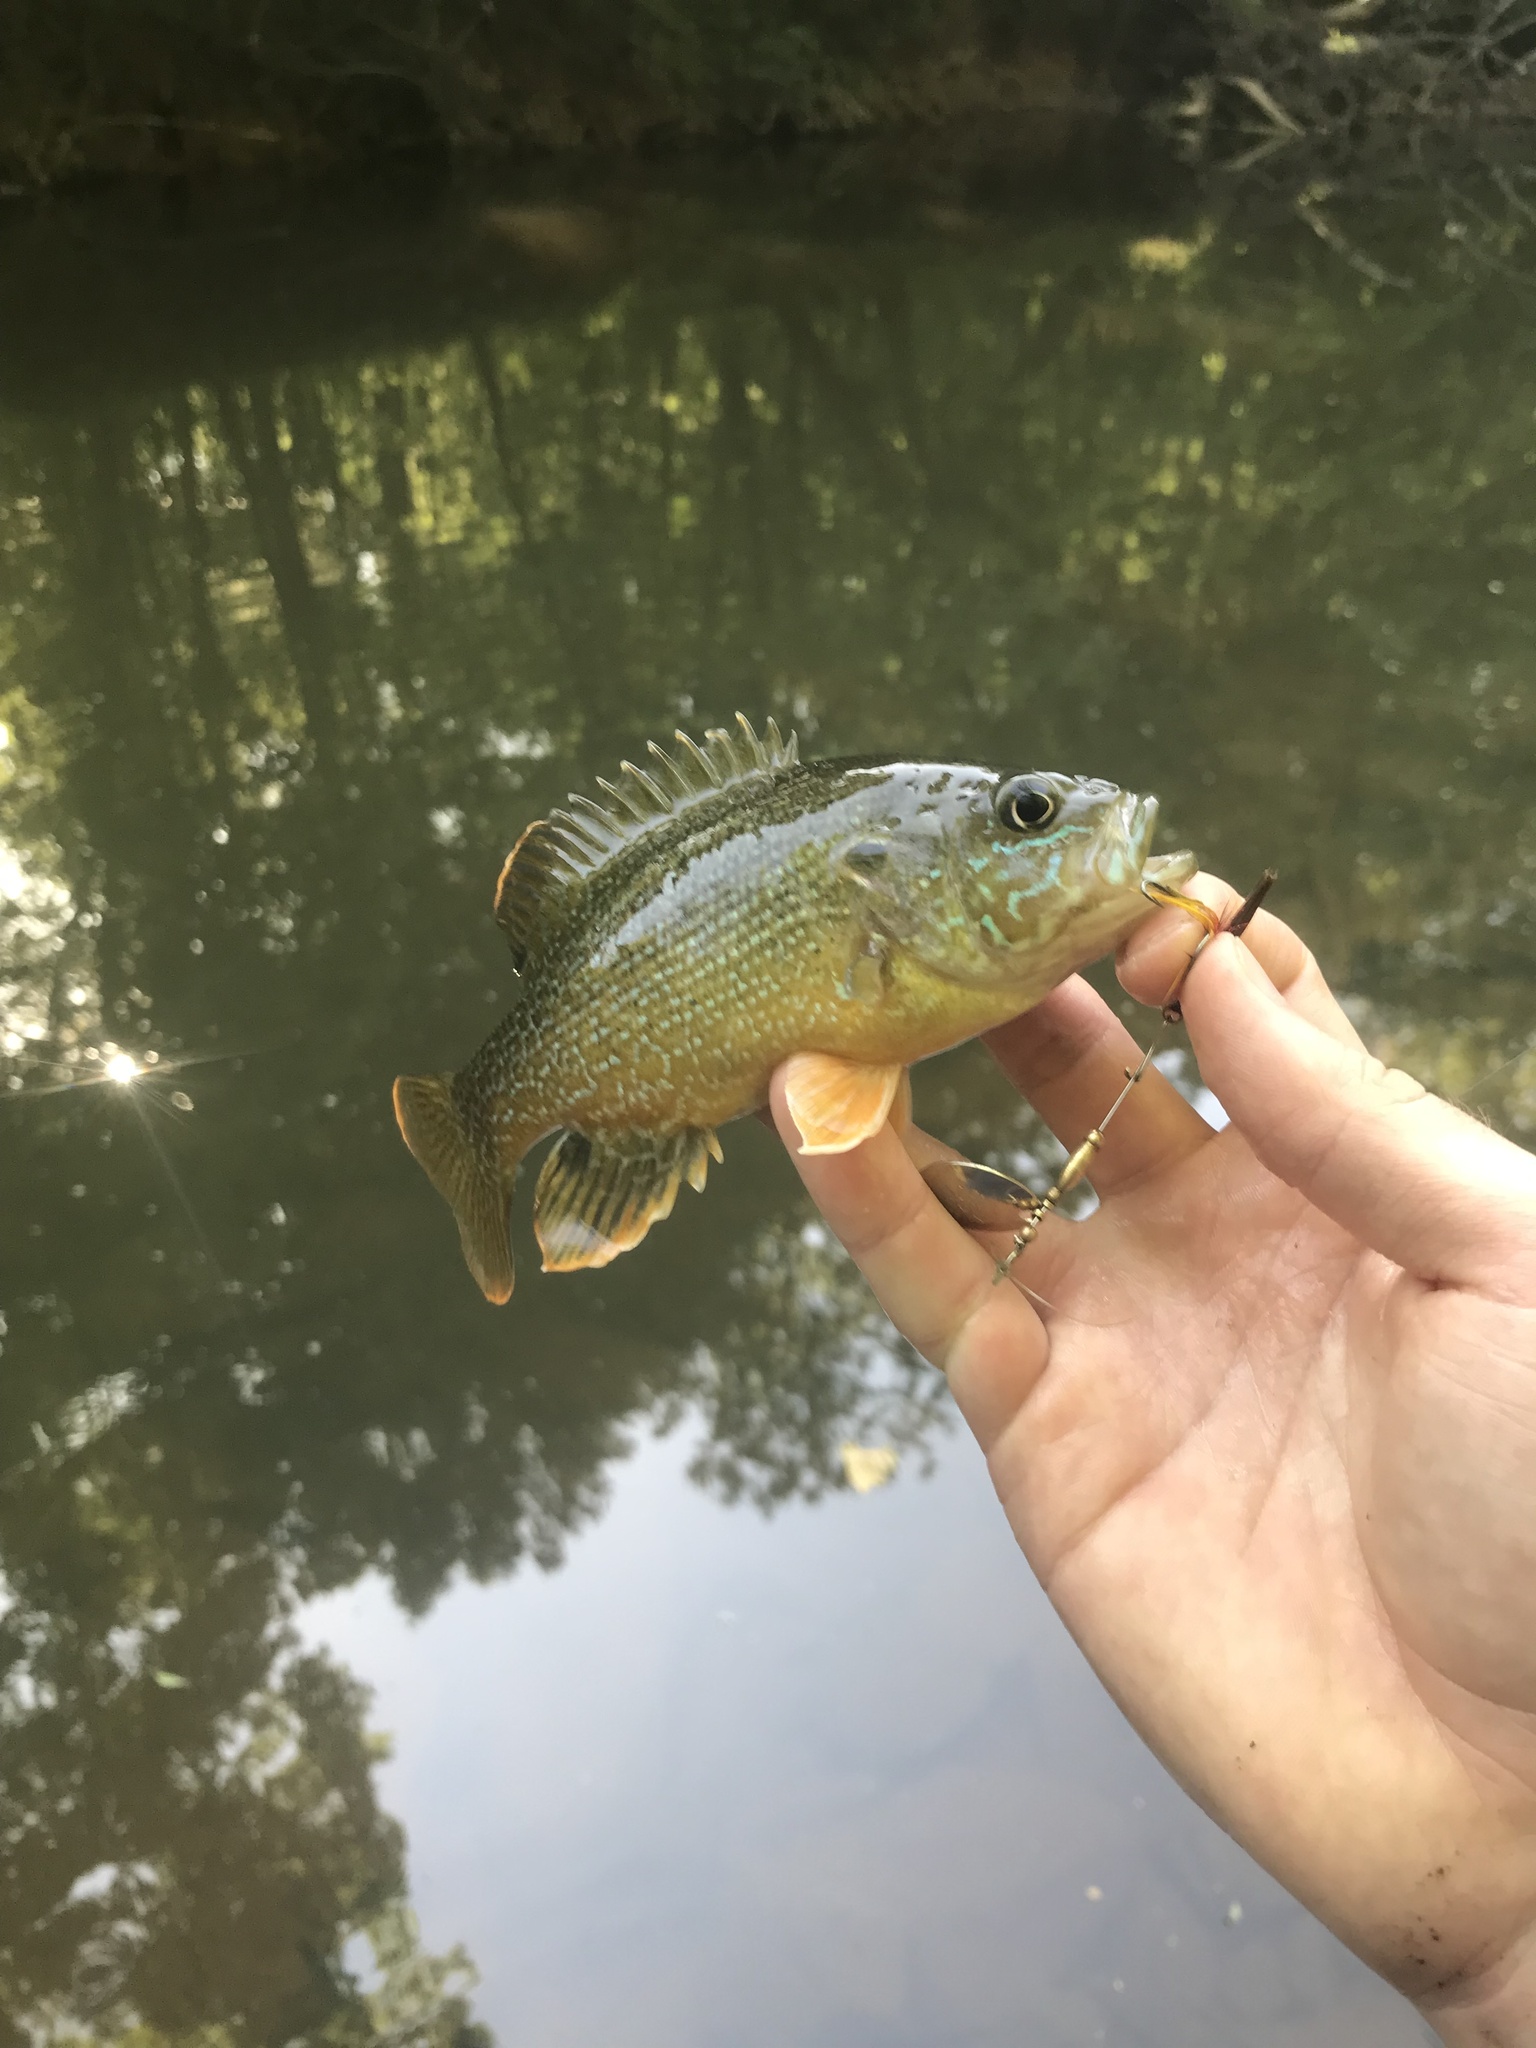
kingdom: Animalia
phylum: Chordata
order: Perciformes
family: Centrarchidae
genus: Lepomis
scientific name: Lepomis cyanellus
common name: Green sunfish
